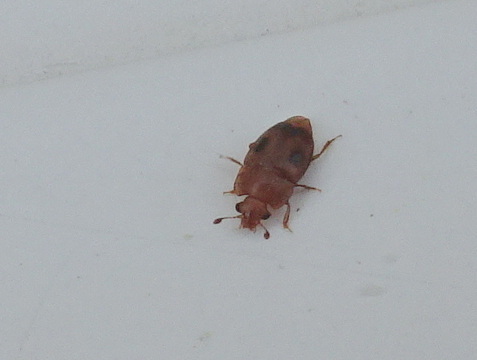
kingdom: Animalia
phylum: Arthropoda
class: Insecta
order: Coleoptera
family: Nitidulidae
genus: Epuraea
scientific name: Epuraea ocularis
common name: Sap beetle
